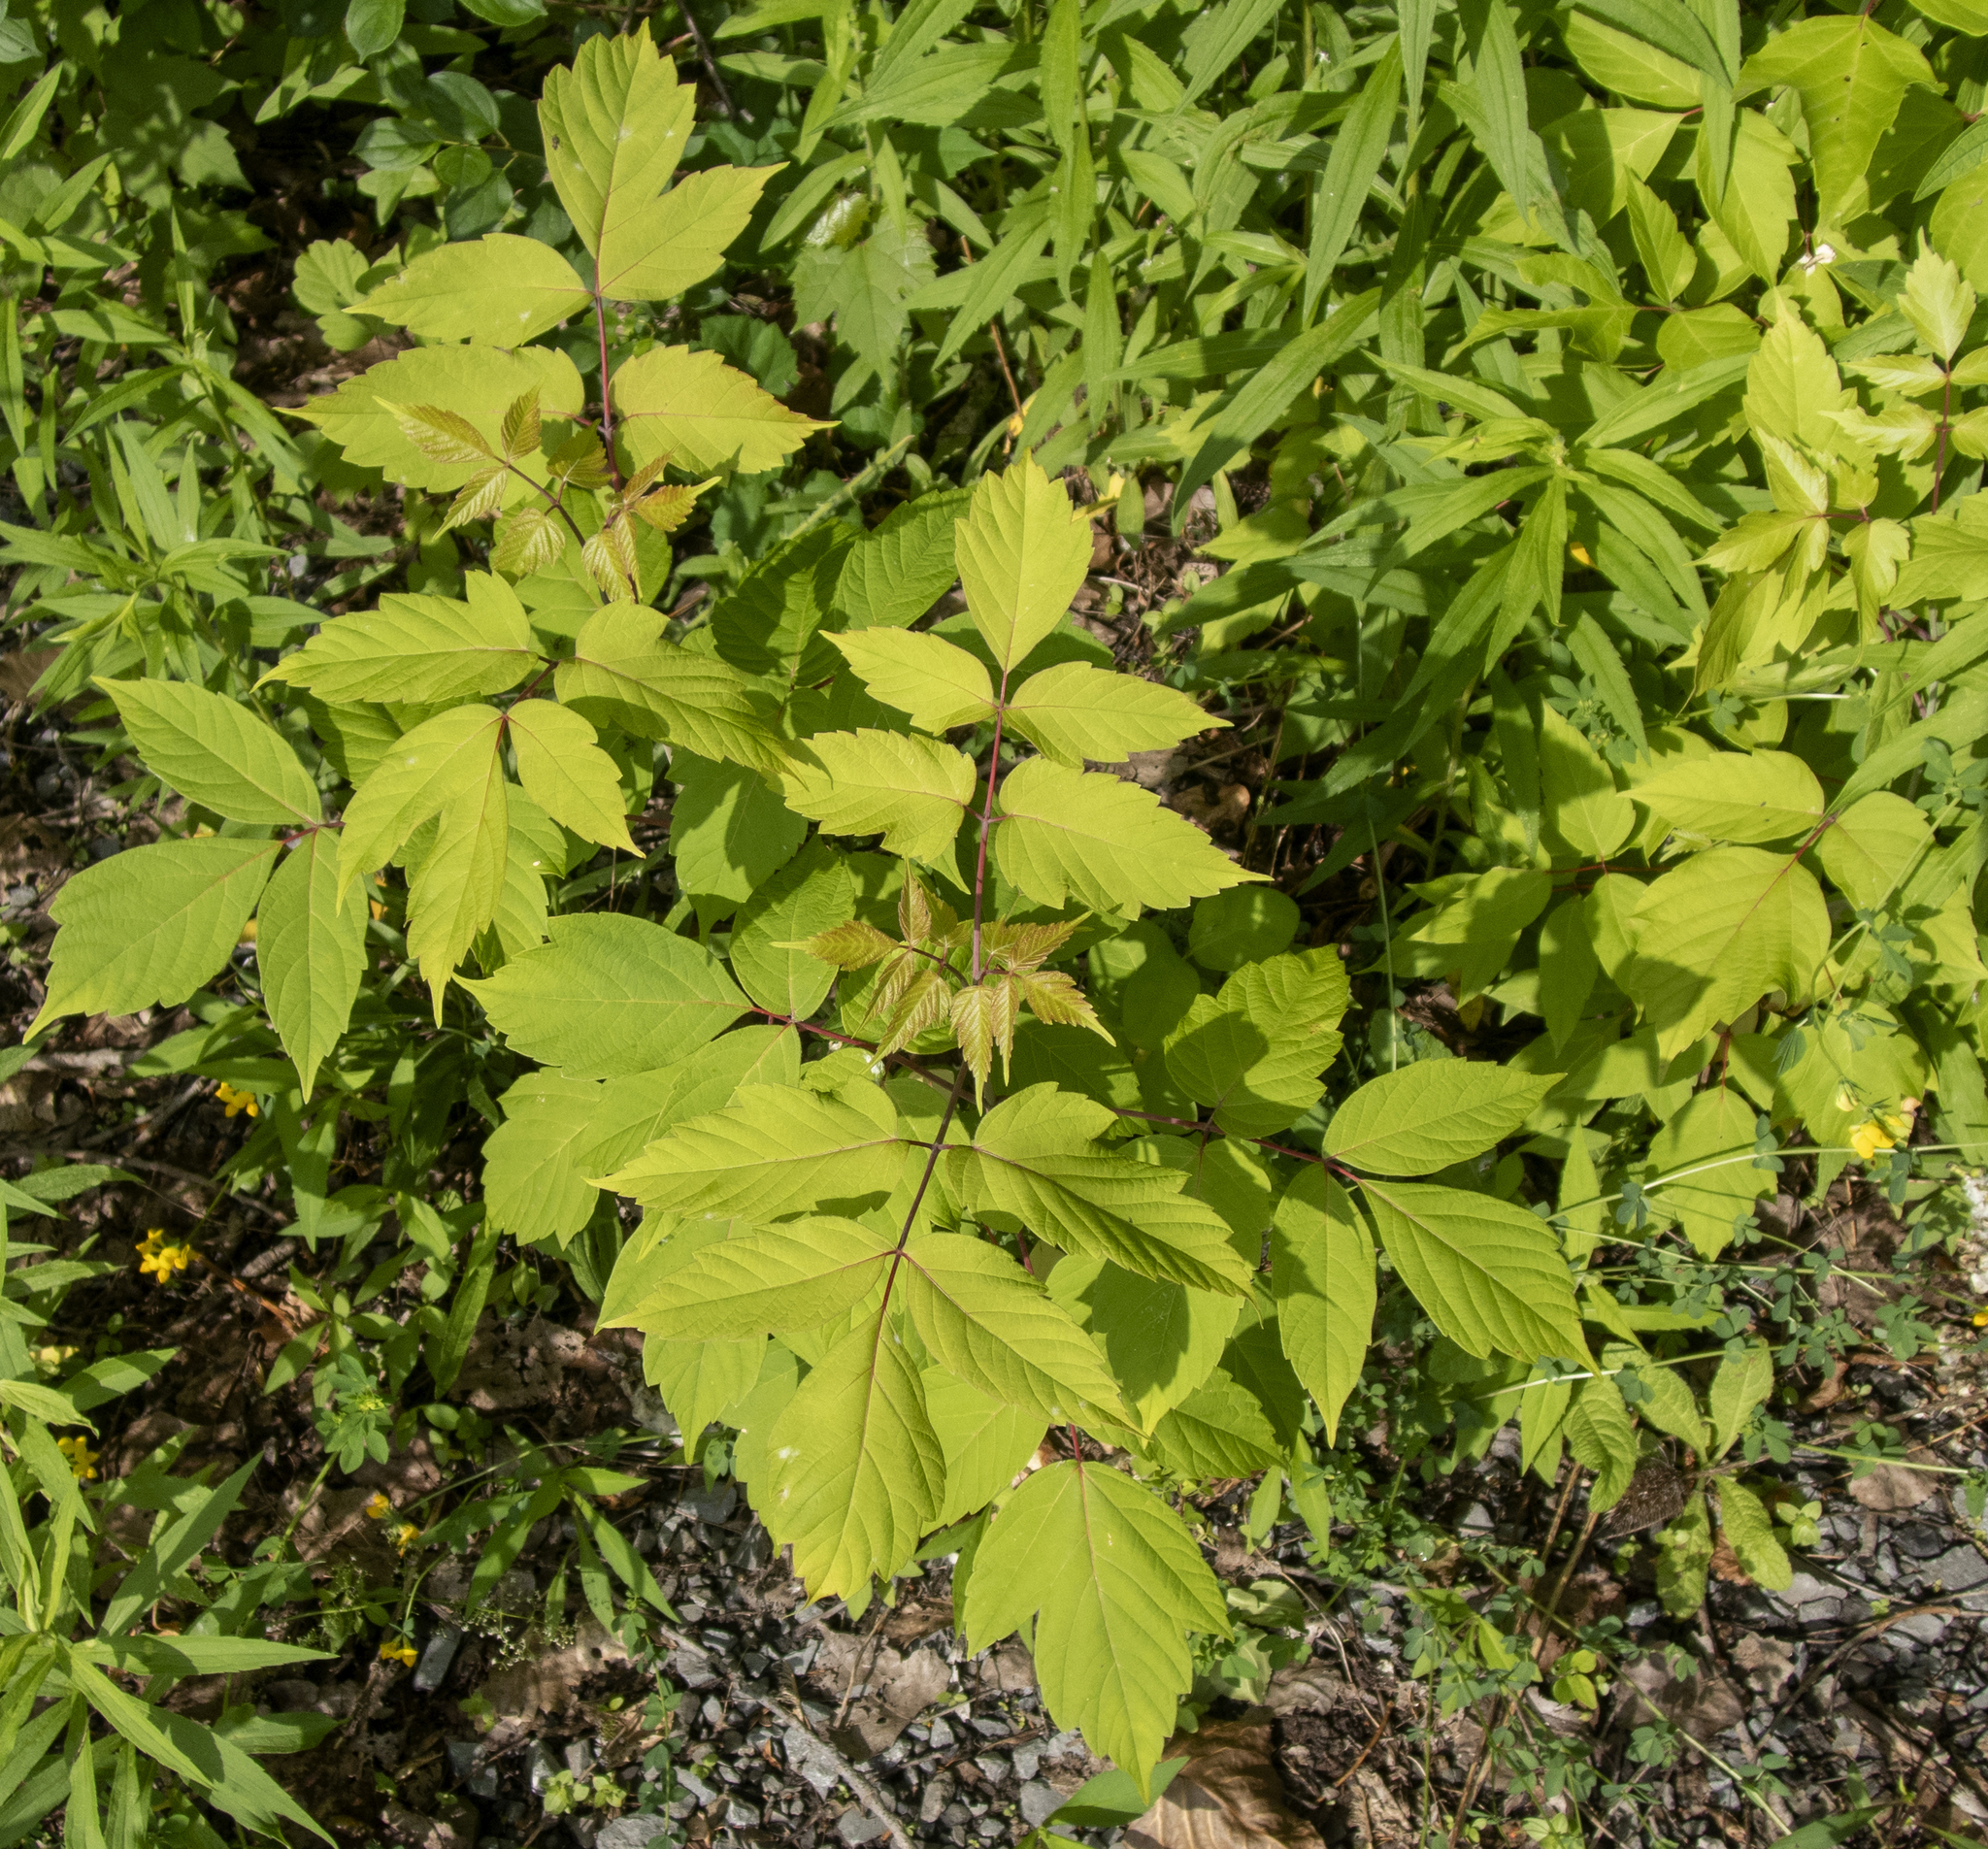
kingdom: Plantae
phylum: Tracheophyta
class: Magnoliopsida
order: Sapindales
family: Sapindaceae
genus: Acer
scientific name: Acer negundo
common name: Ashleaf maple
